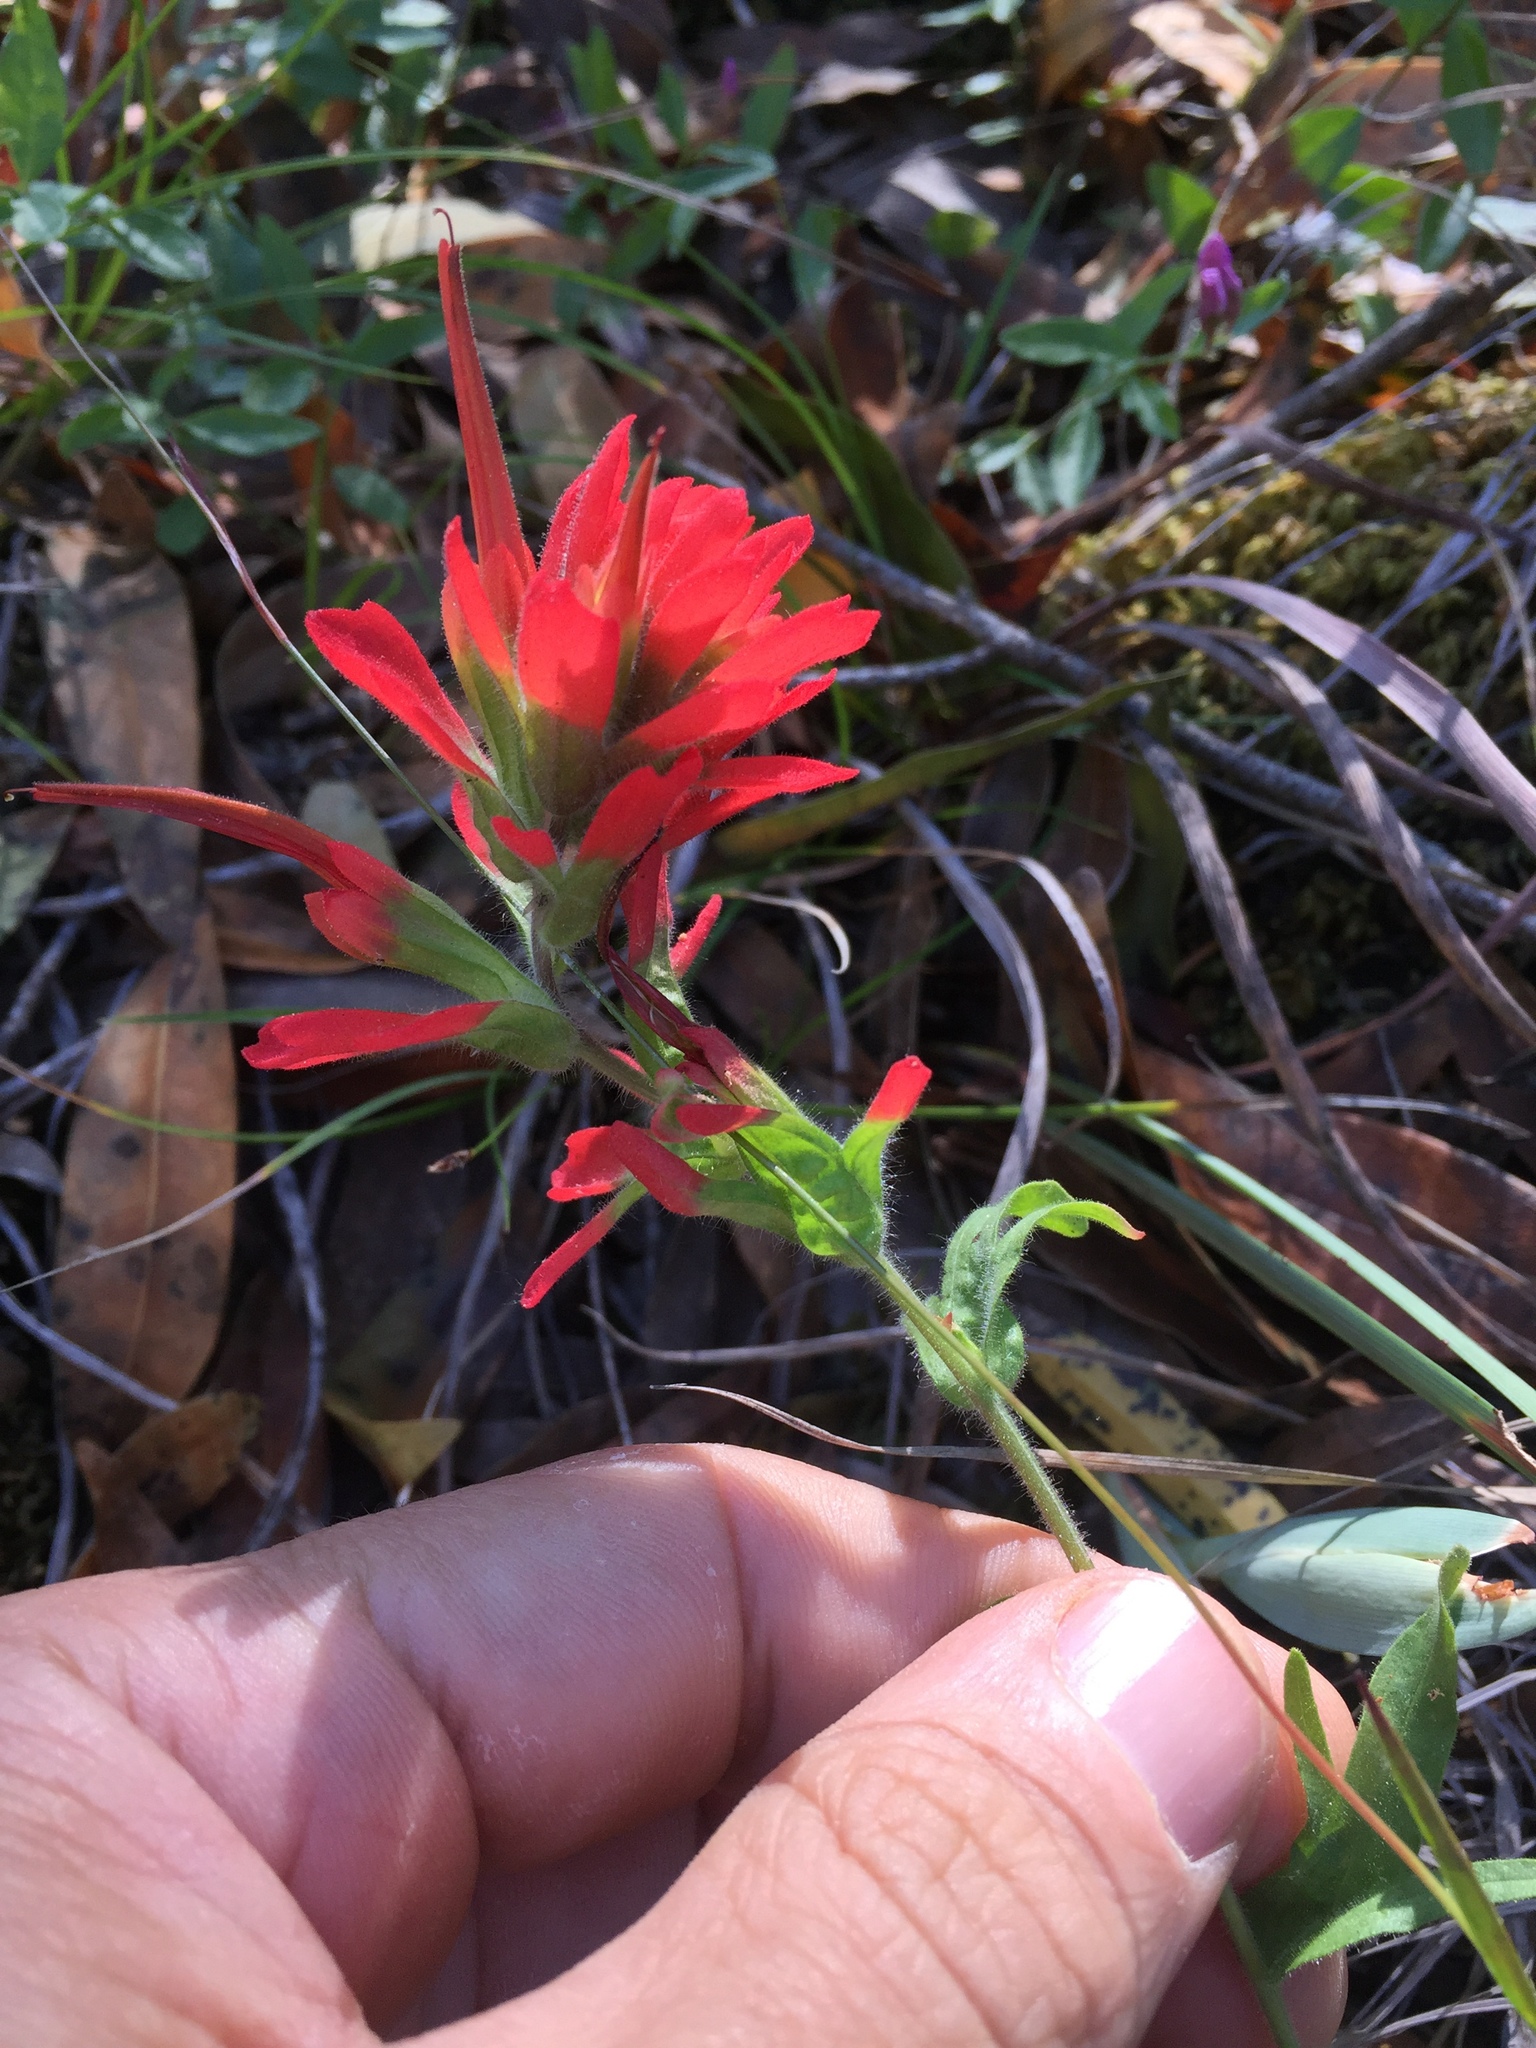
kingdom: Plantae
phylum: Tracheophyta
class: Magnoliopsida
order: Lamiales
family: Orobanchaceae
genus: Castilleja
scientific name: Castilleja martini
